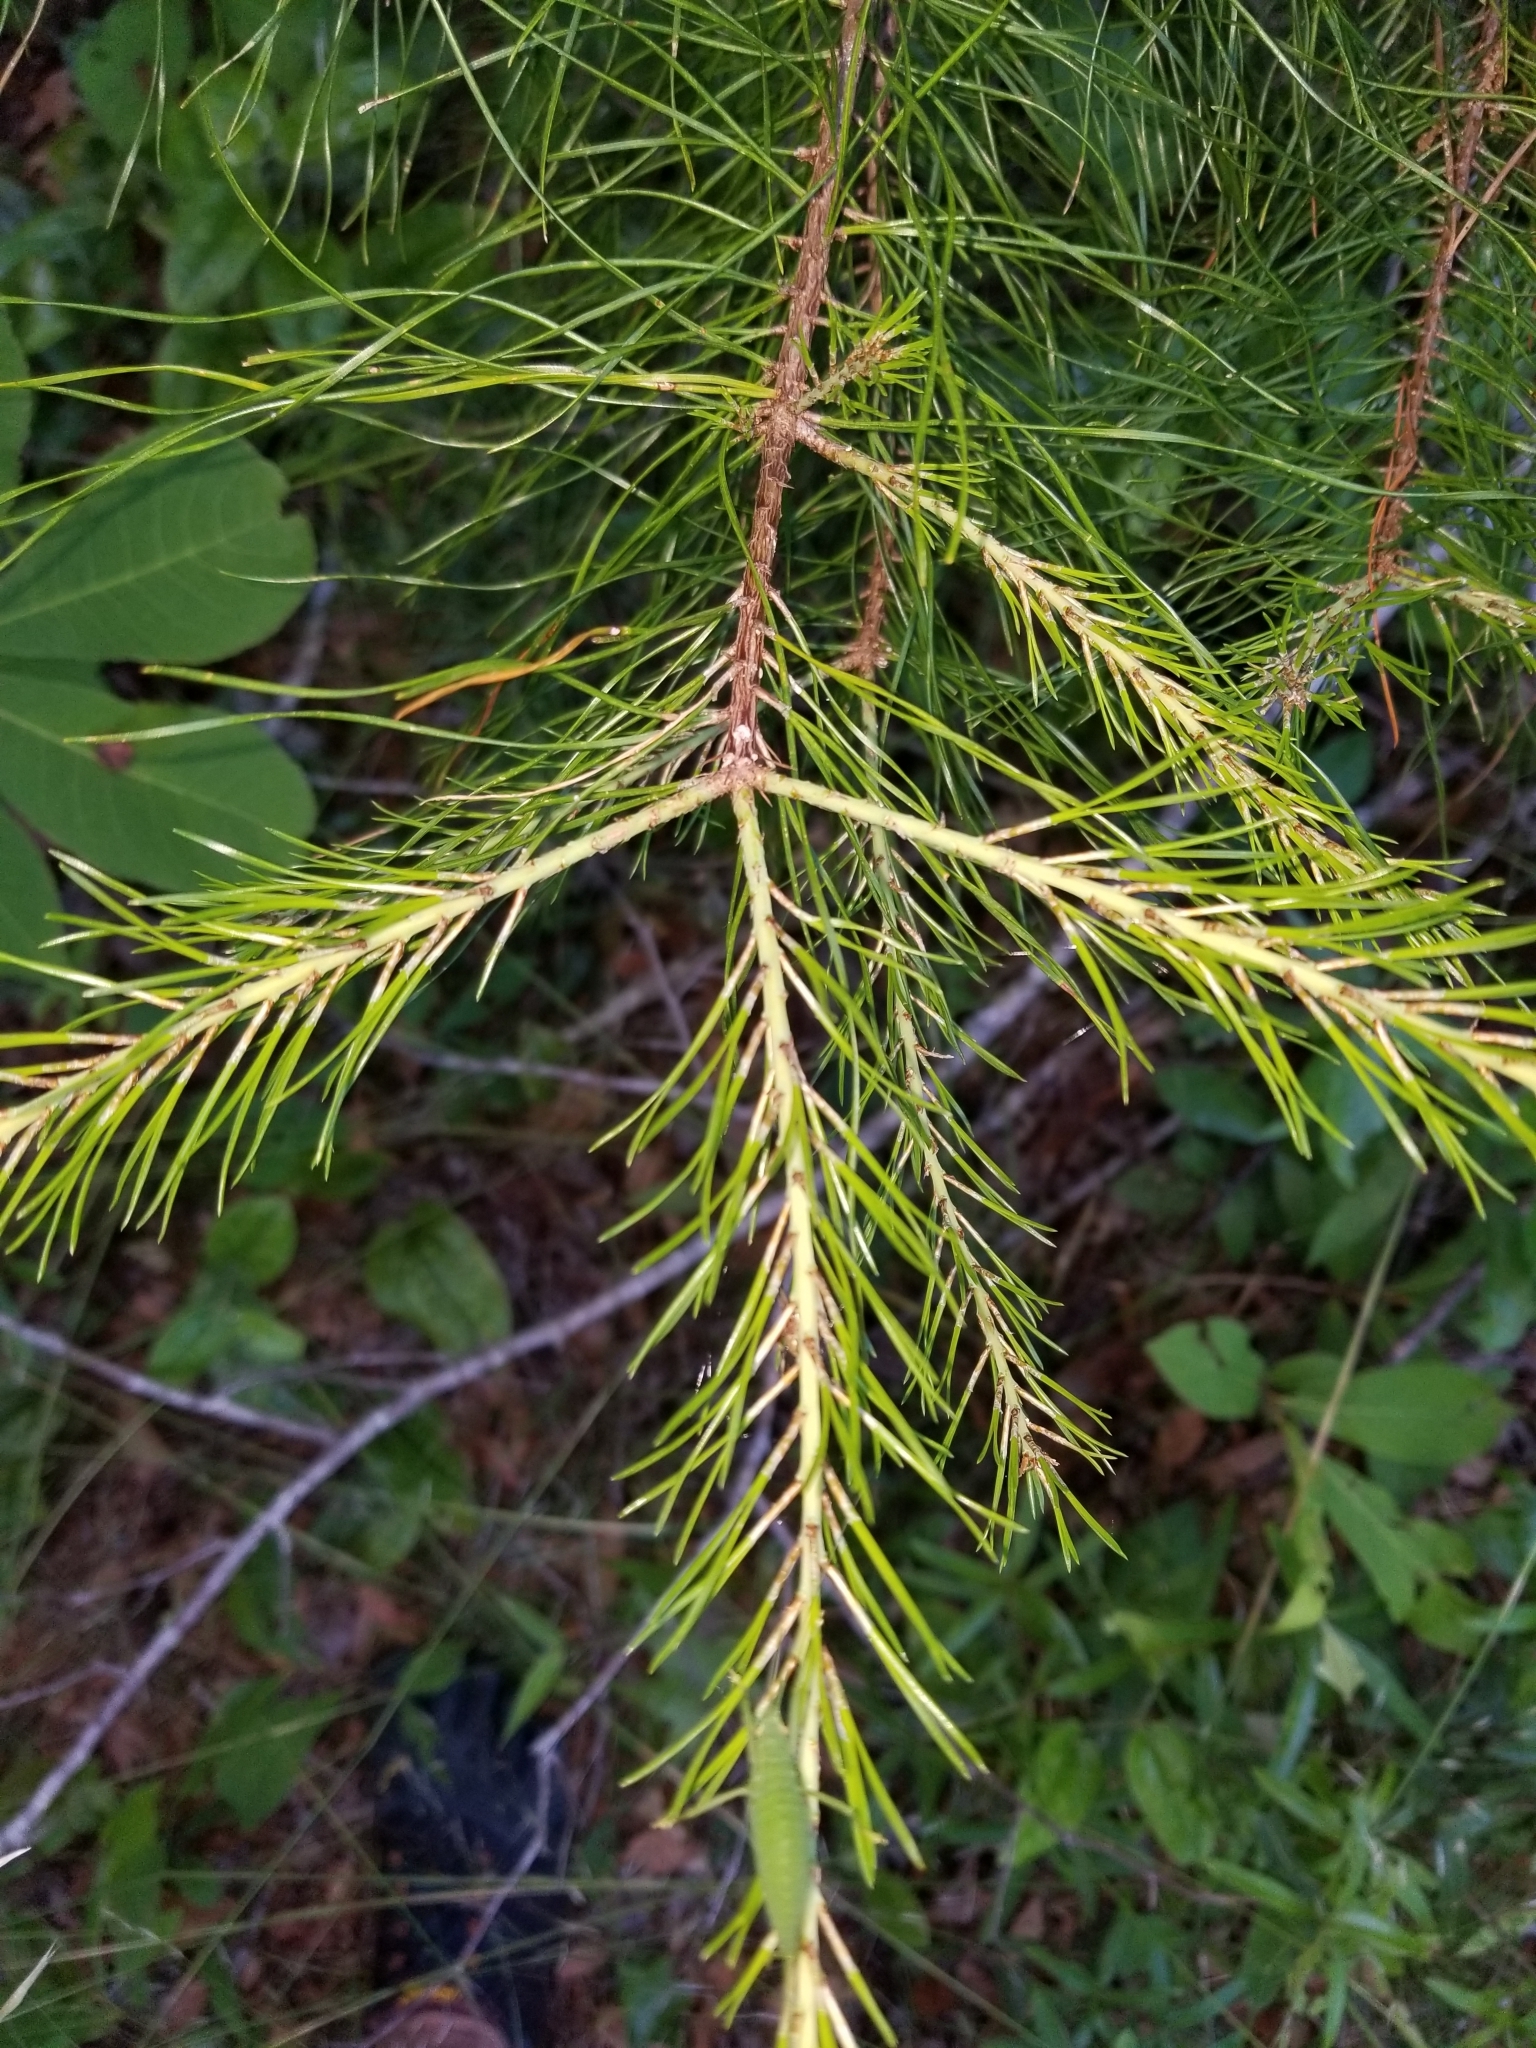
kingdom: Plantae
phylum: Tracheophyta
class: Pinopsida
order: Pinales
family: Pinaceae
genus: Pinus
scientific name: Pinus glabra
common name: Spruce pine
